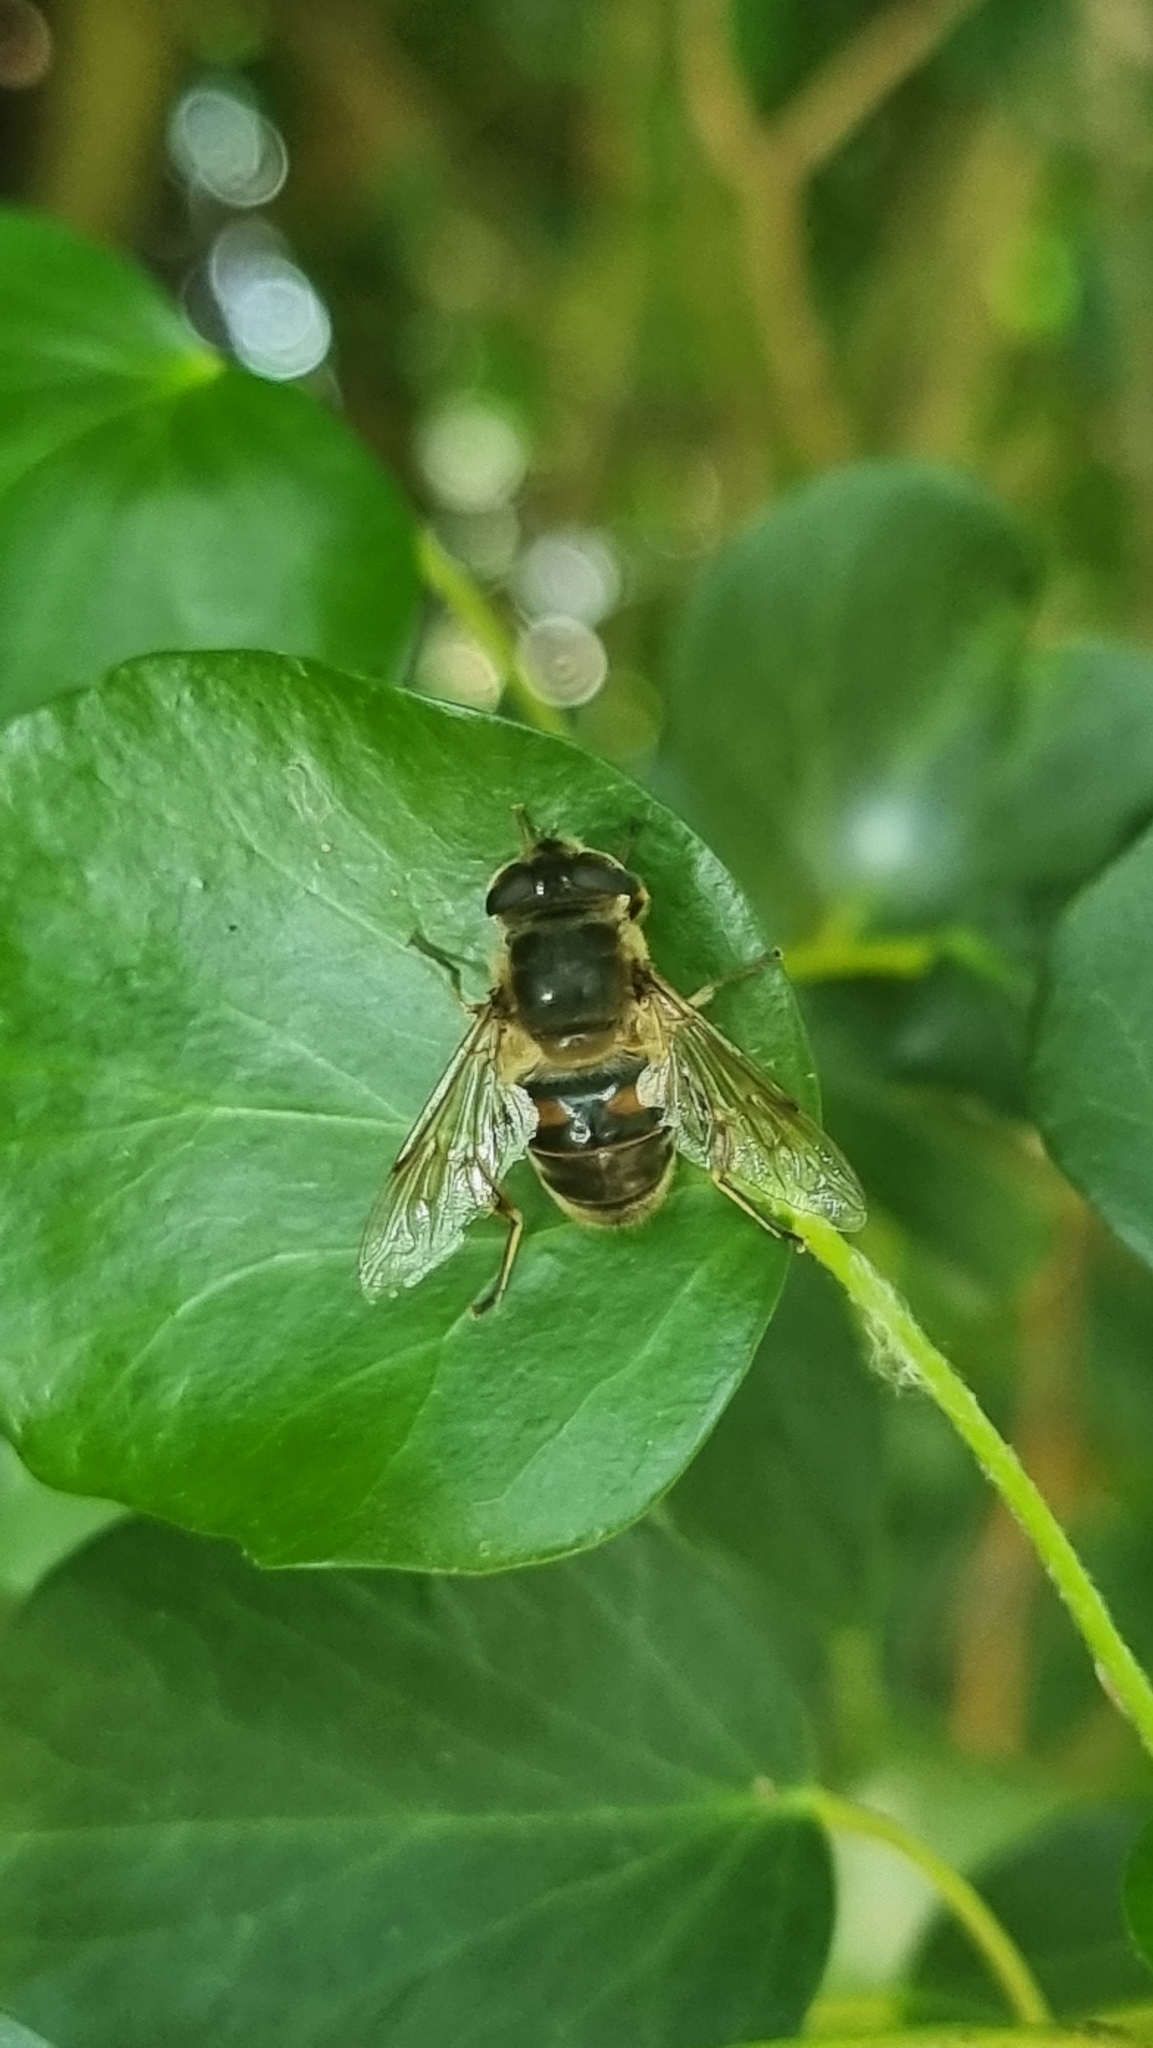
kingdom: Animalia
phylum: Arthropoda
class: Insecta
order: Diptera
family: Syrphidae
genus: Eristalis
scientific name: Eristalis tenax
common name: Drone fly
